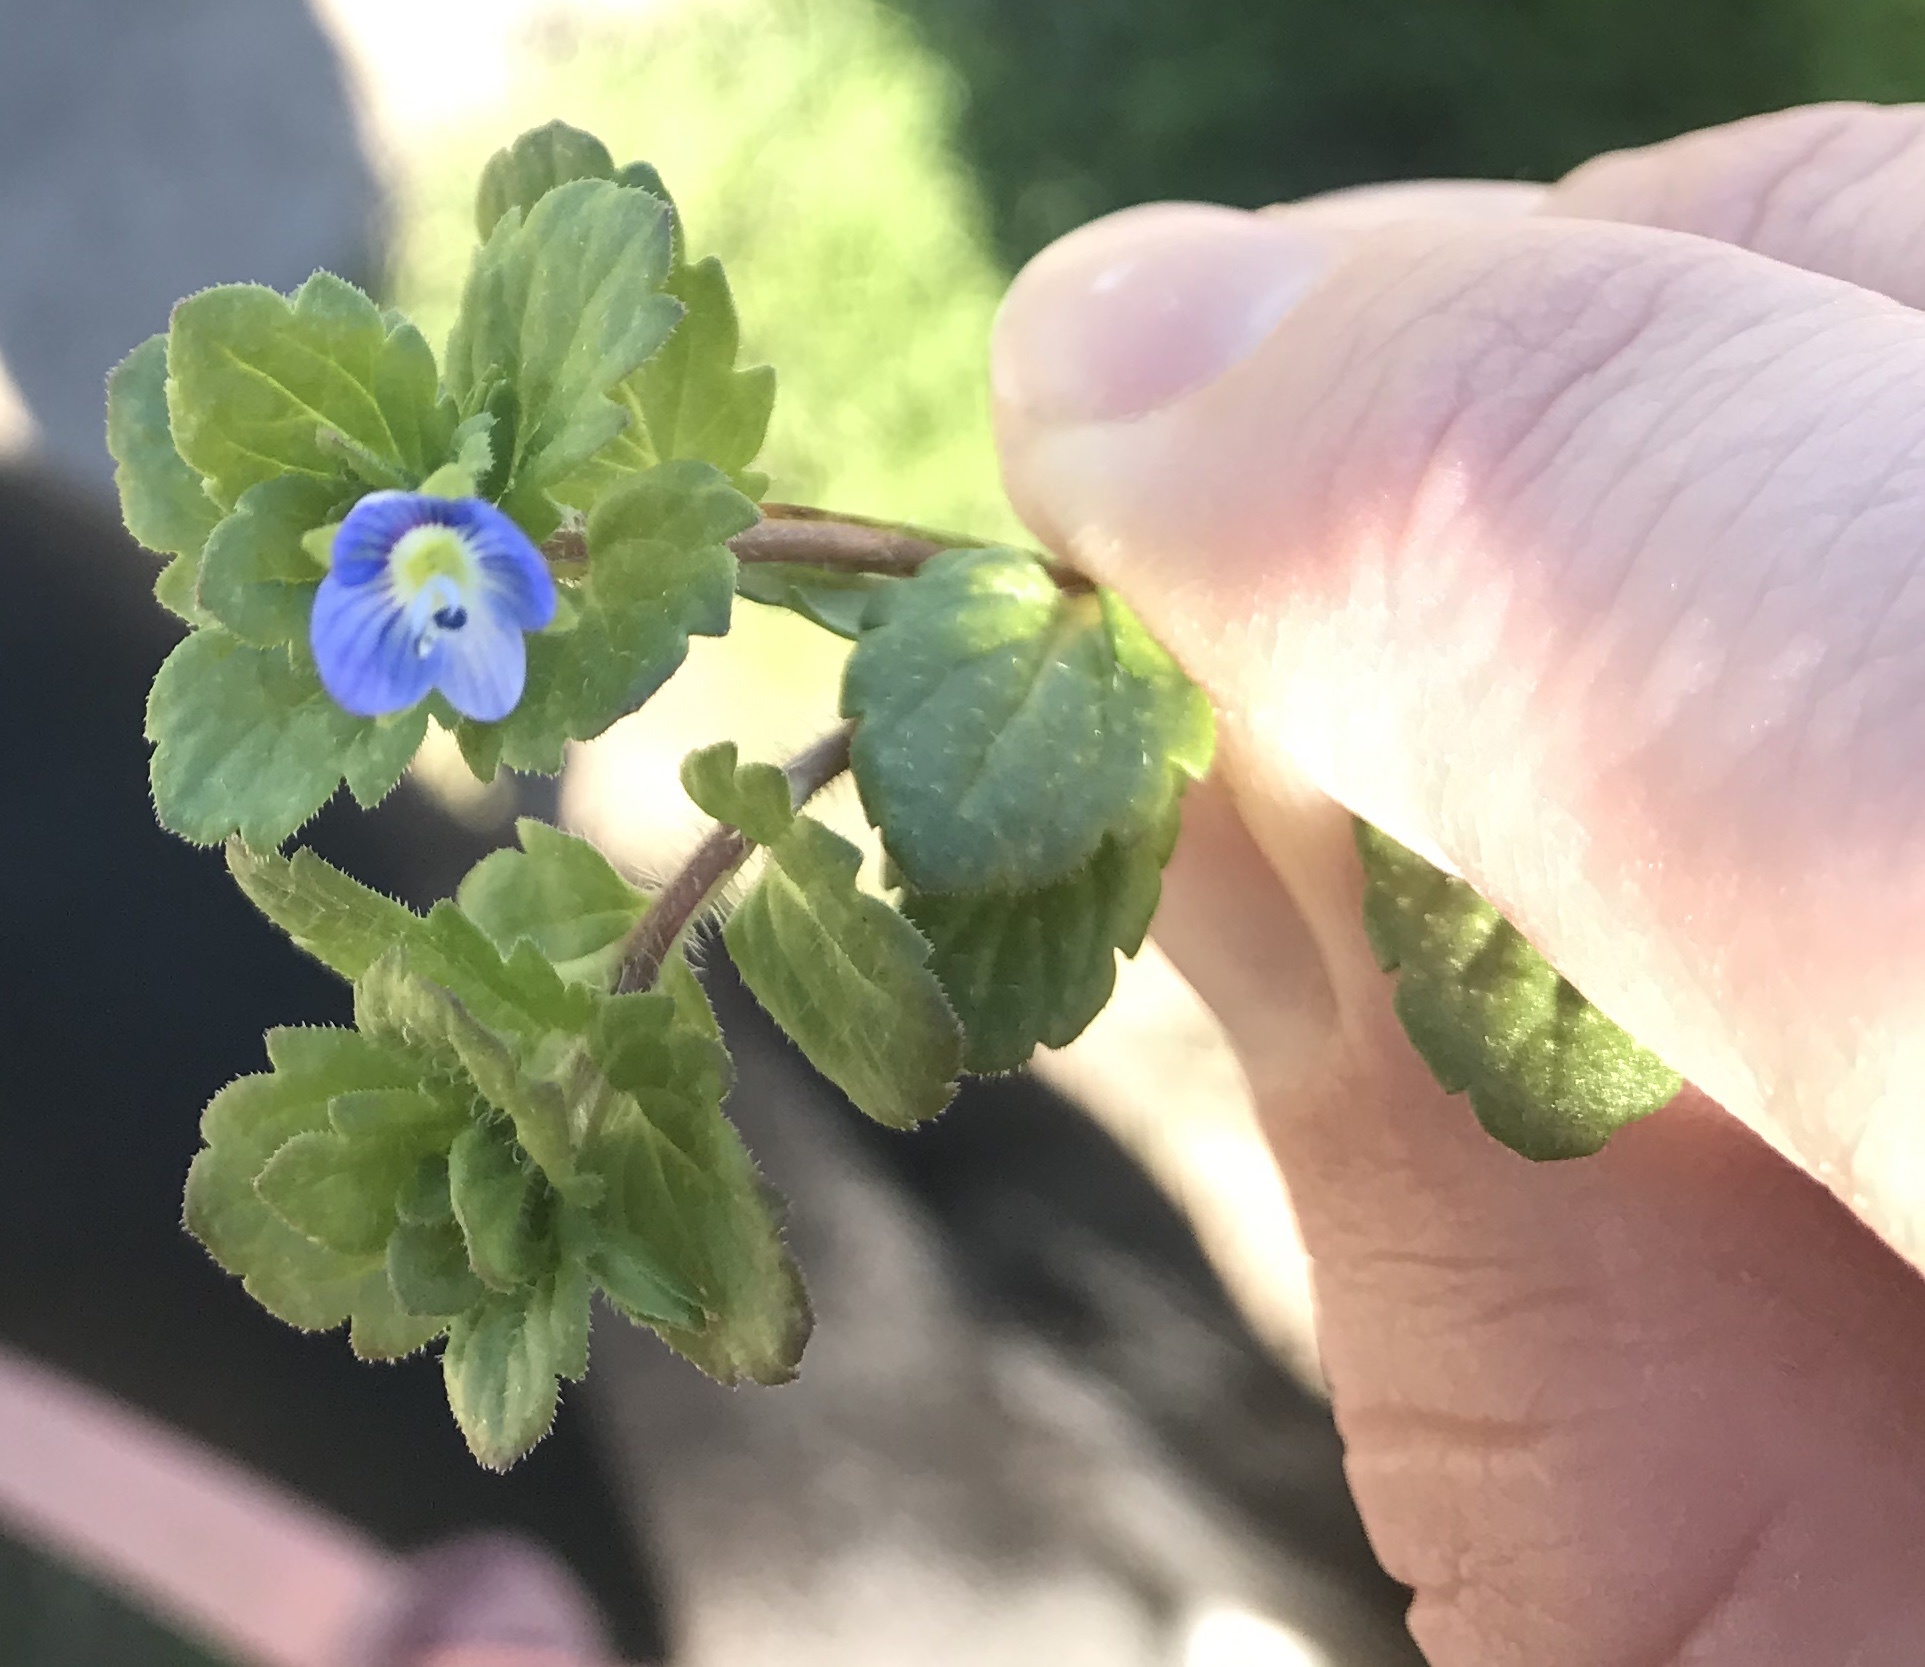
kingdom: Plantae
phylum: Tracheophyta
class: Magnoliopsida
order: Lamiales
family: Plantaginaceae
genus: Veronica
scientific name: Veronica persica
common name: Common field-speedwell
